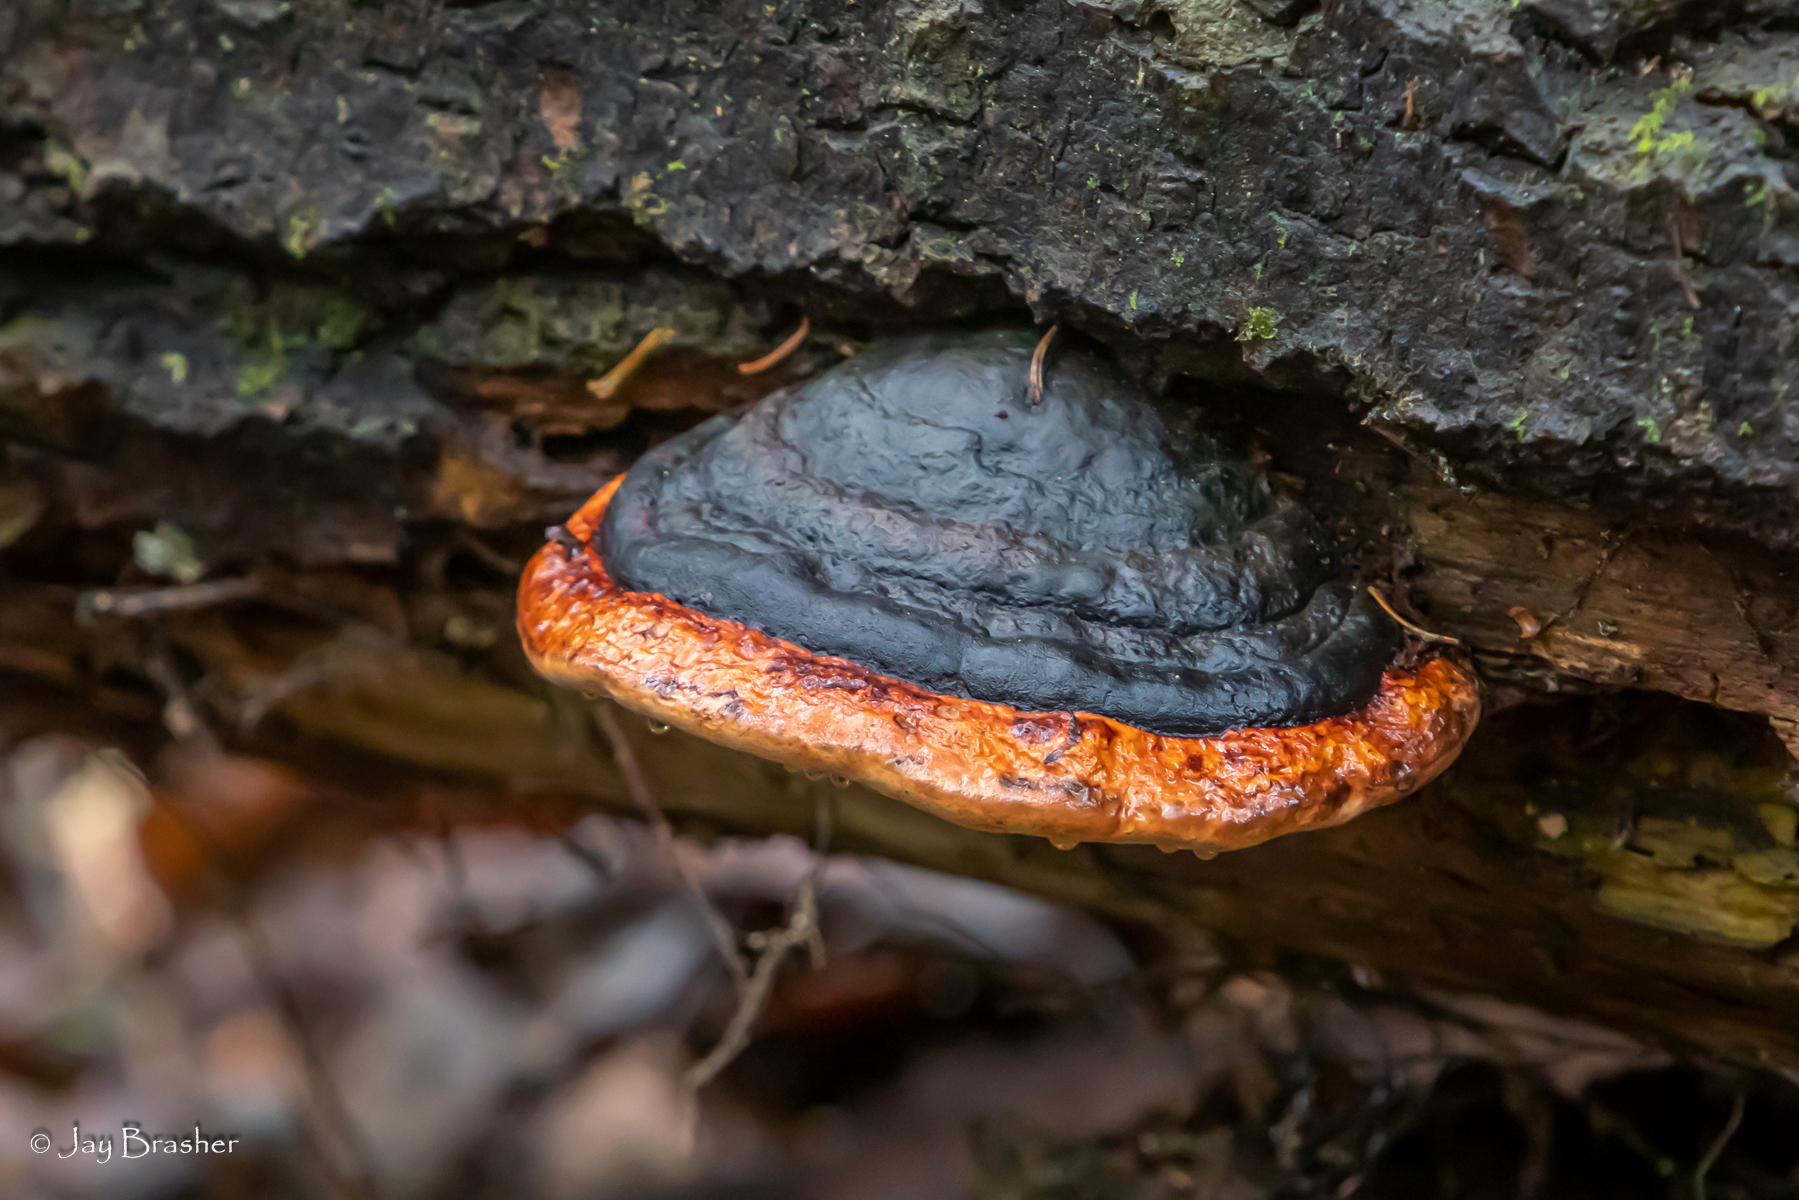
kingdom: Fungi
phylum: Basidiomycota
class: Agaricomycetes
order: Polyporales
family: Fomitopsidaceae
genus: Fomitopsis
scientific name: Fomitopsis mounceae
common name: Northern red belt
